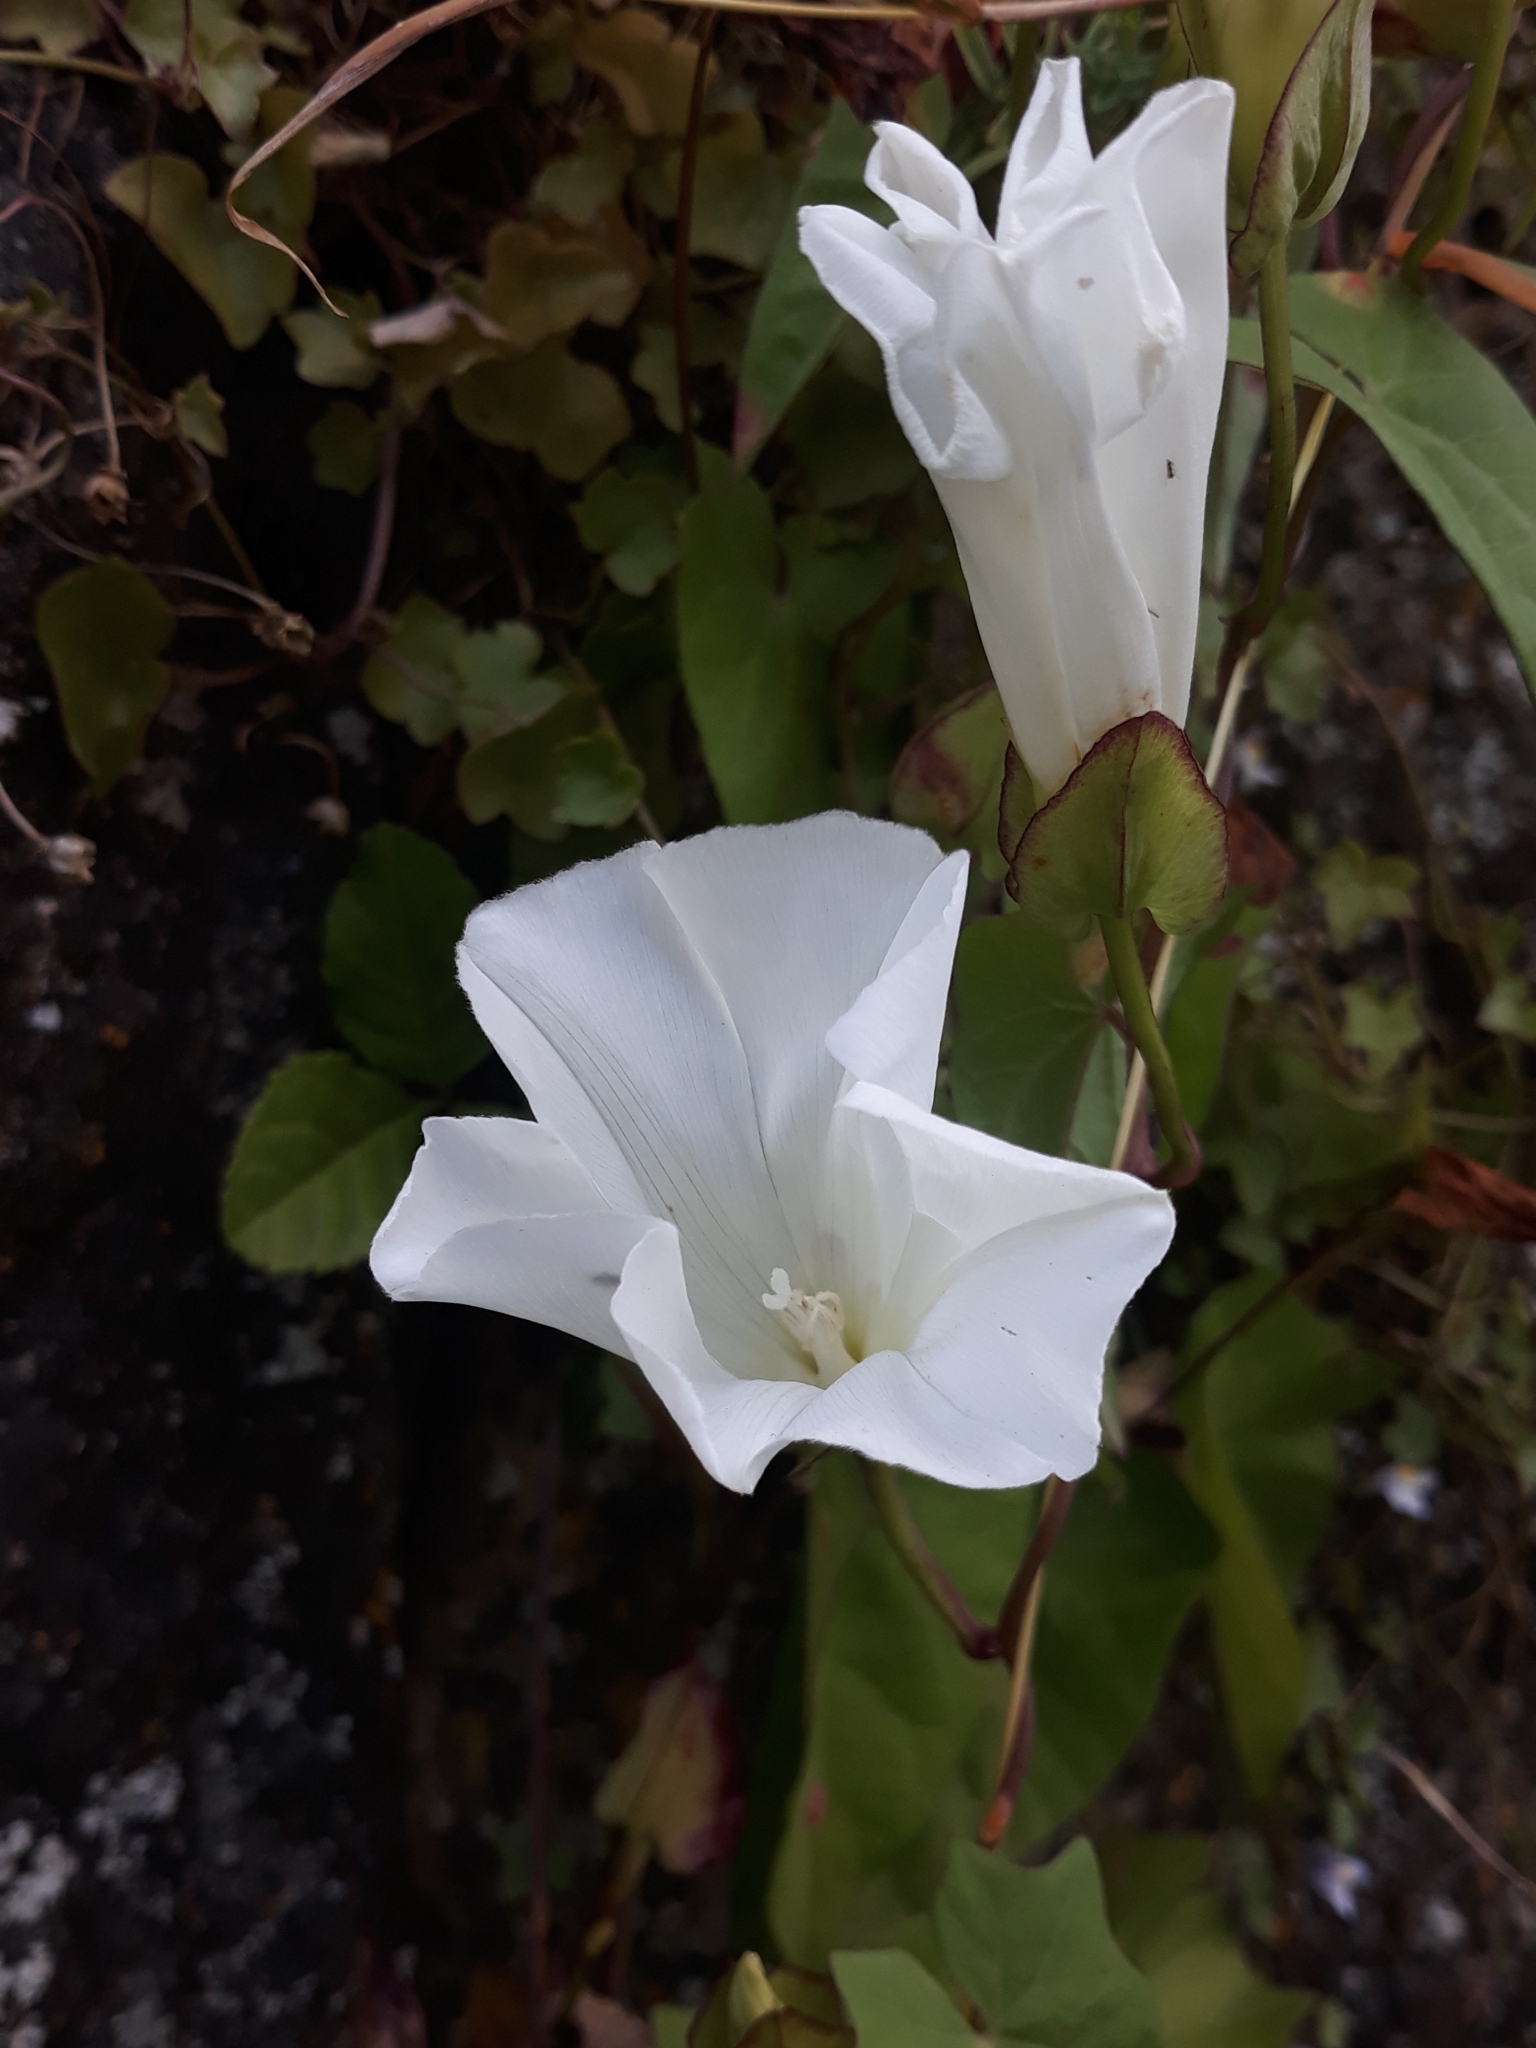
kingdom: Plantae
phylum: Tracheophyta
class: Magnoliopsida
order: Solanales
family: Convolvulaceae
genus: Calystegia
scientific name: Calystegia sepium
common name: Hedge bindweed
